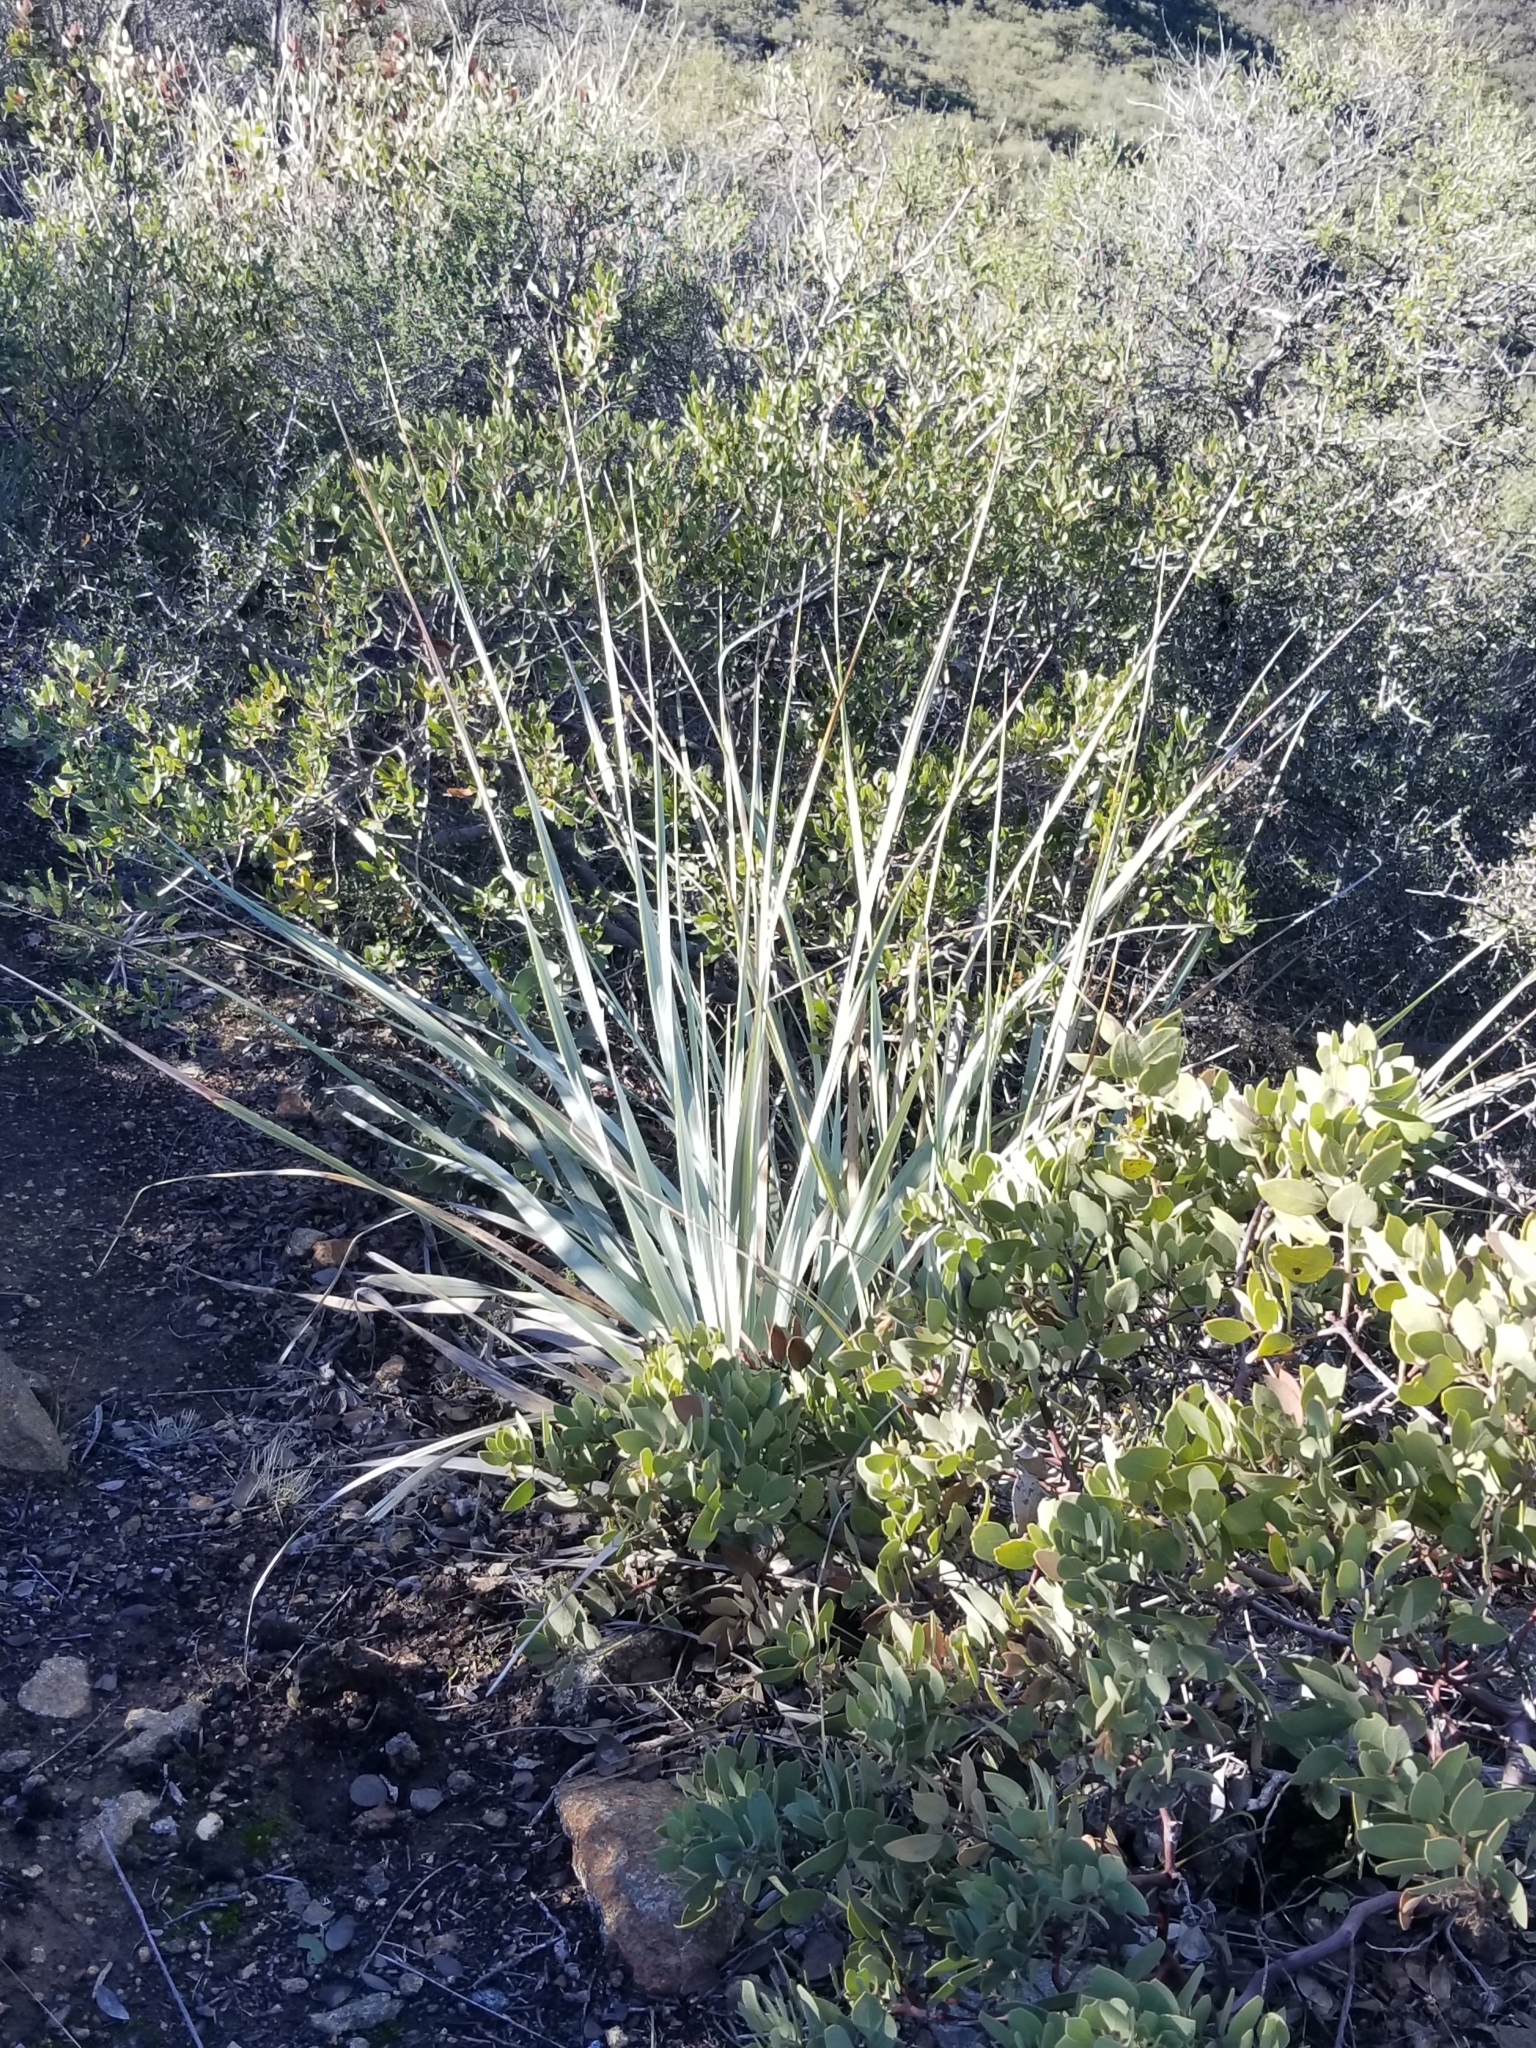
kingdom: Plantae
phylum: Tracheophyta
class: Liliopsida
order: Asparagales
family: Asparagaceae
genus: Nolina
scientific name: Nolina interrata
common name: Dehesa bear-grass
